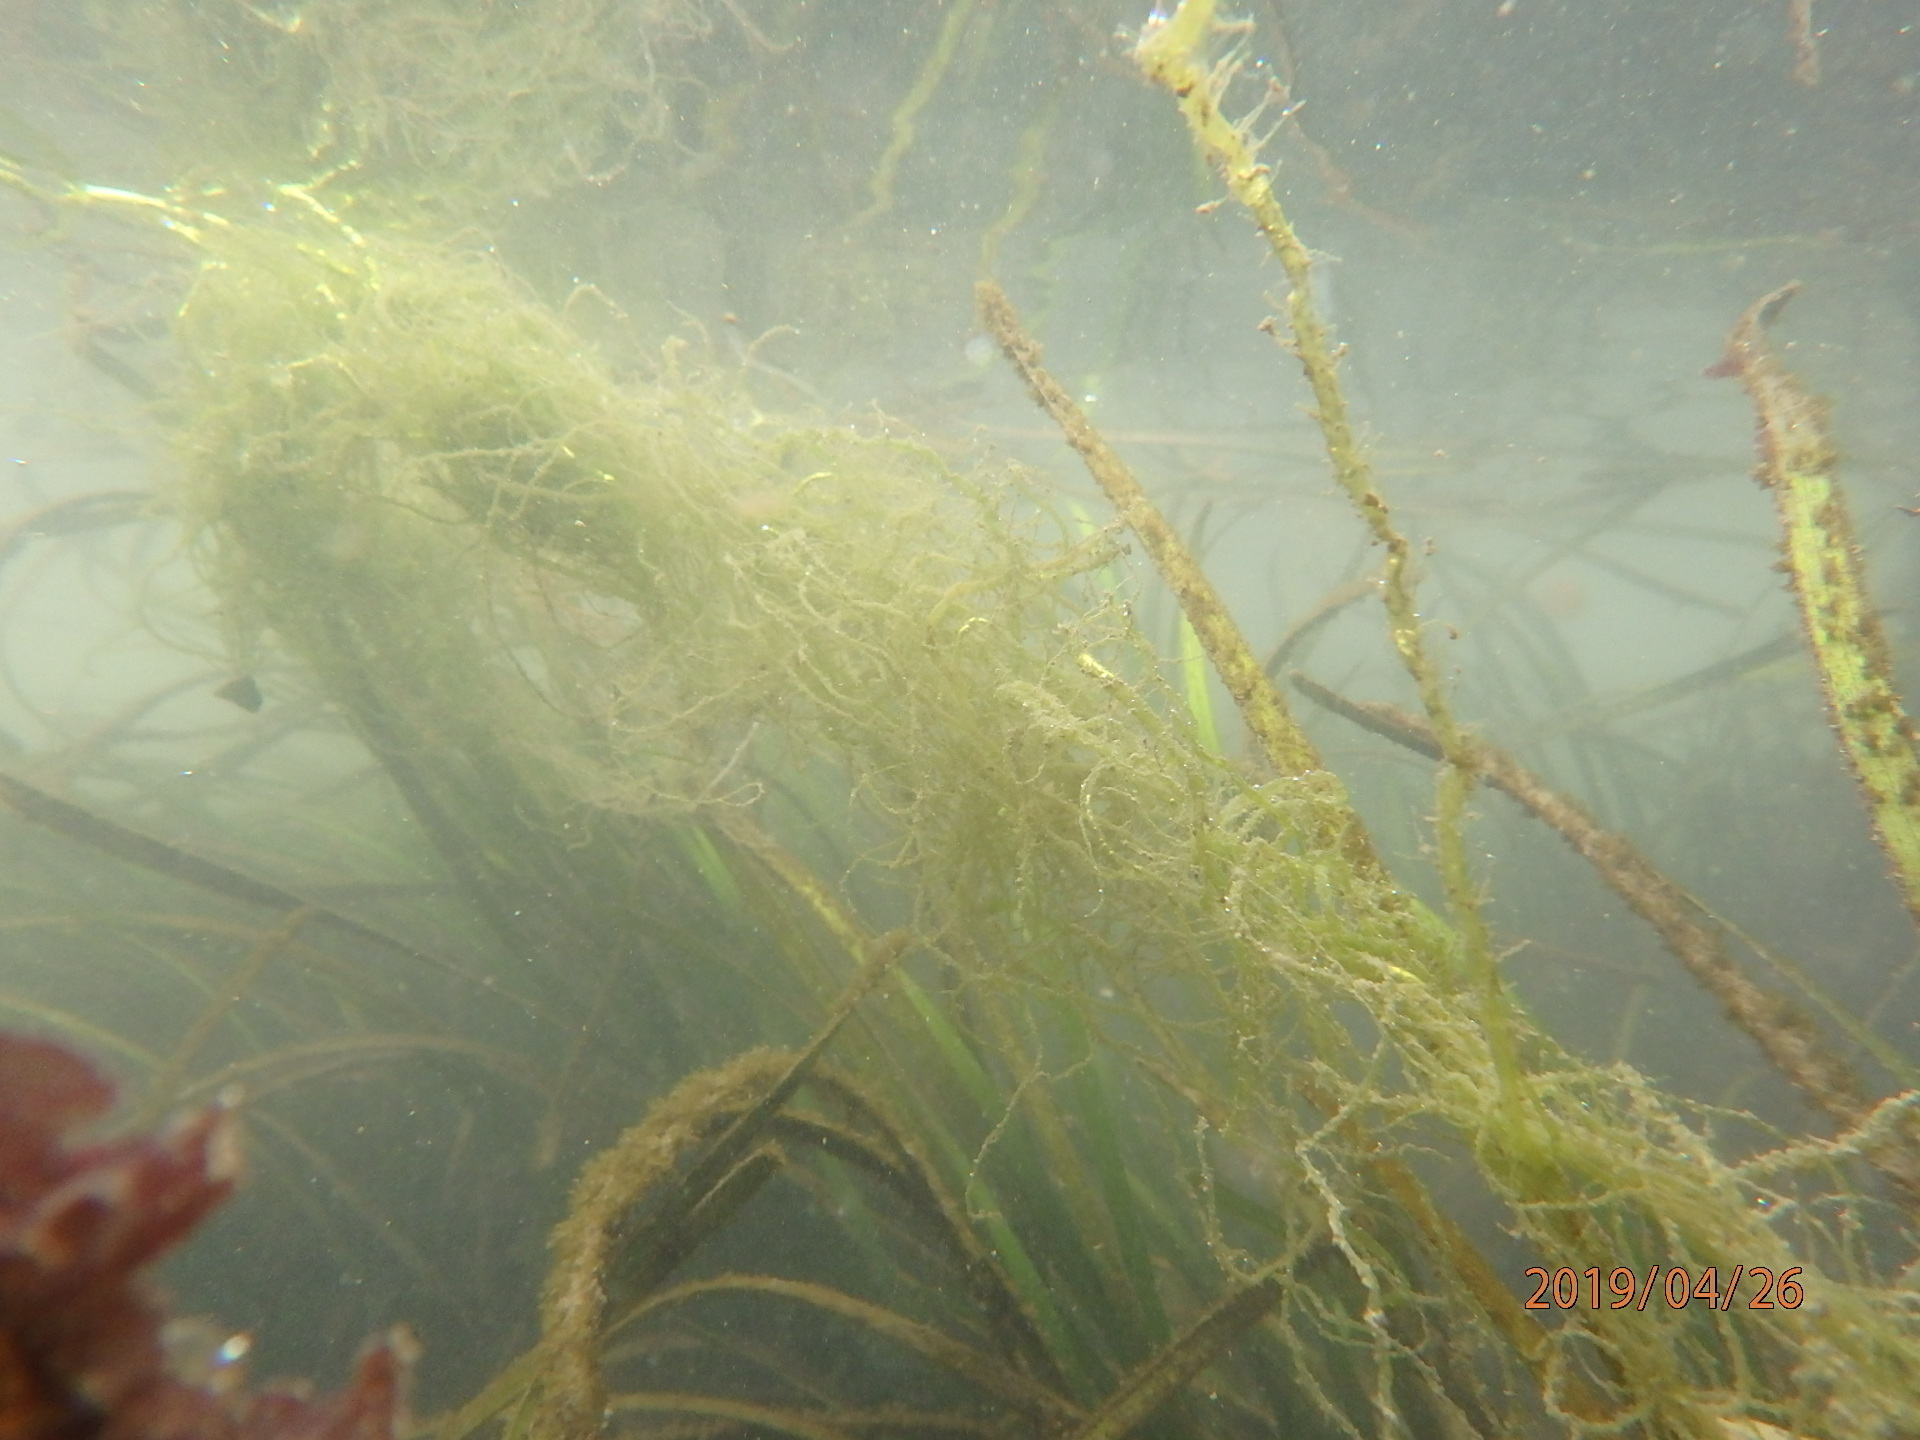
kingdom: Plantae
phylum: Chlorophyta
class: Ulvophyceae
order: Ulvales
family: Ulvaceae
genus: Ulva
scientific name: Ulva intestinalis
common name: Gut weed
